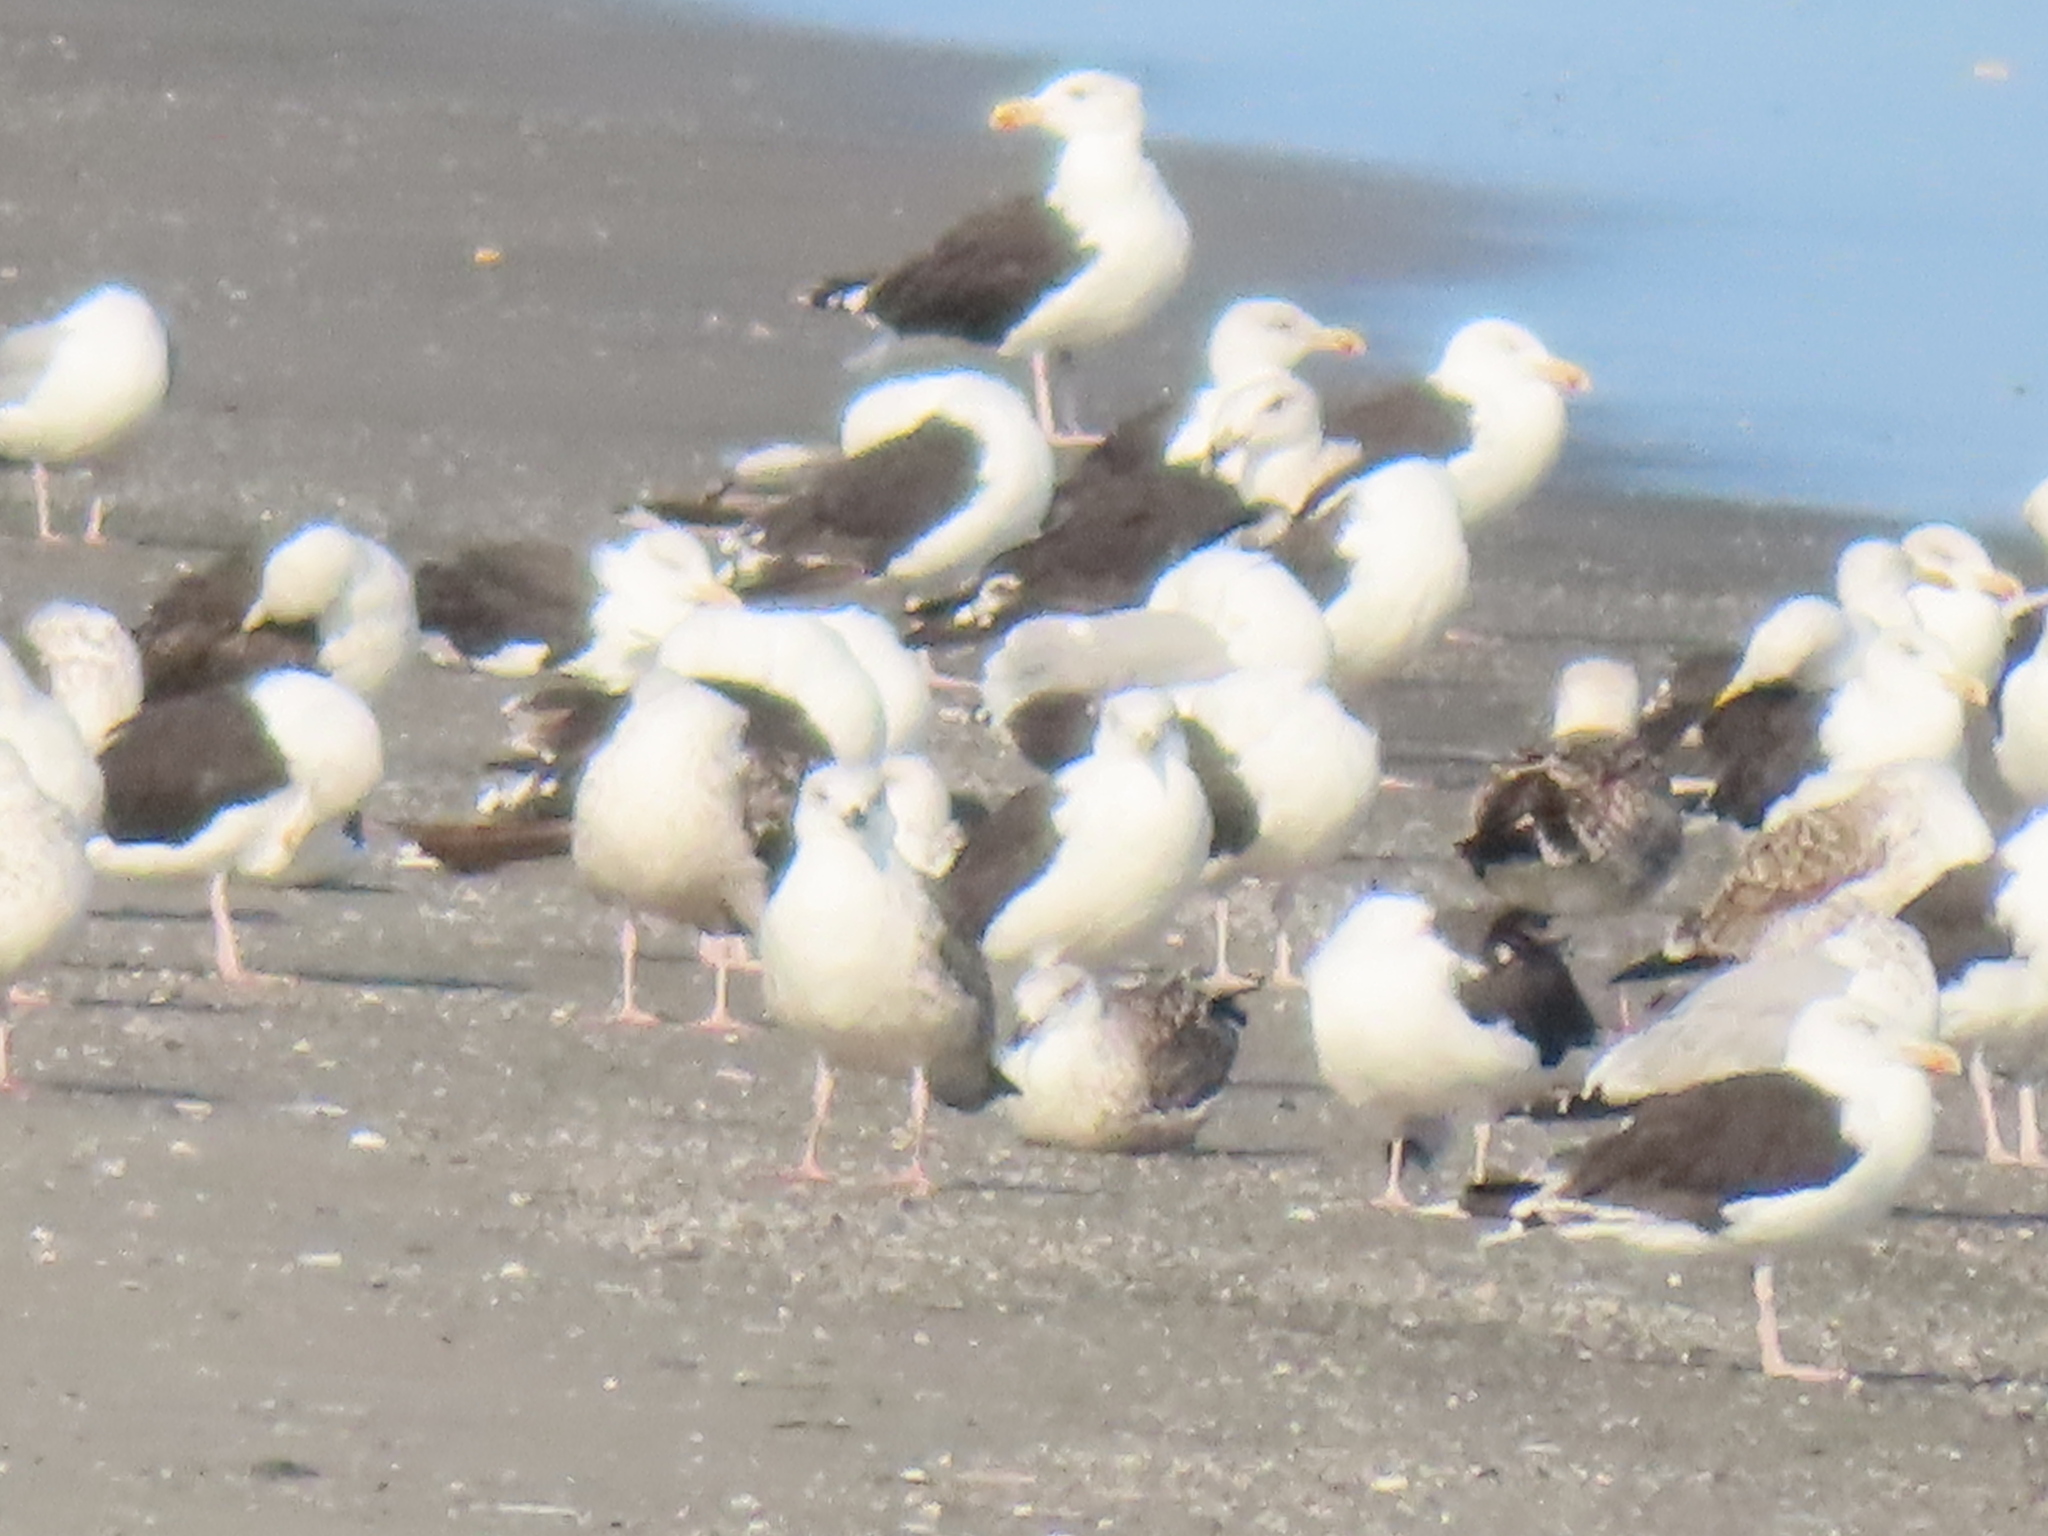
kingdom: Animalia
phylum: Chordata
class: Aves
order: Charadriiformes
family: Laridae
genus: Larus
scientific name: Larus marinus
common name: Great black-backed gull
